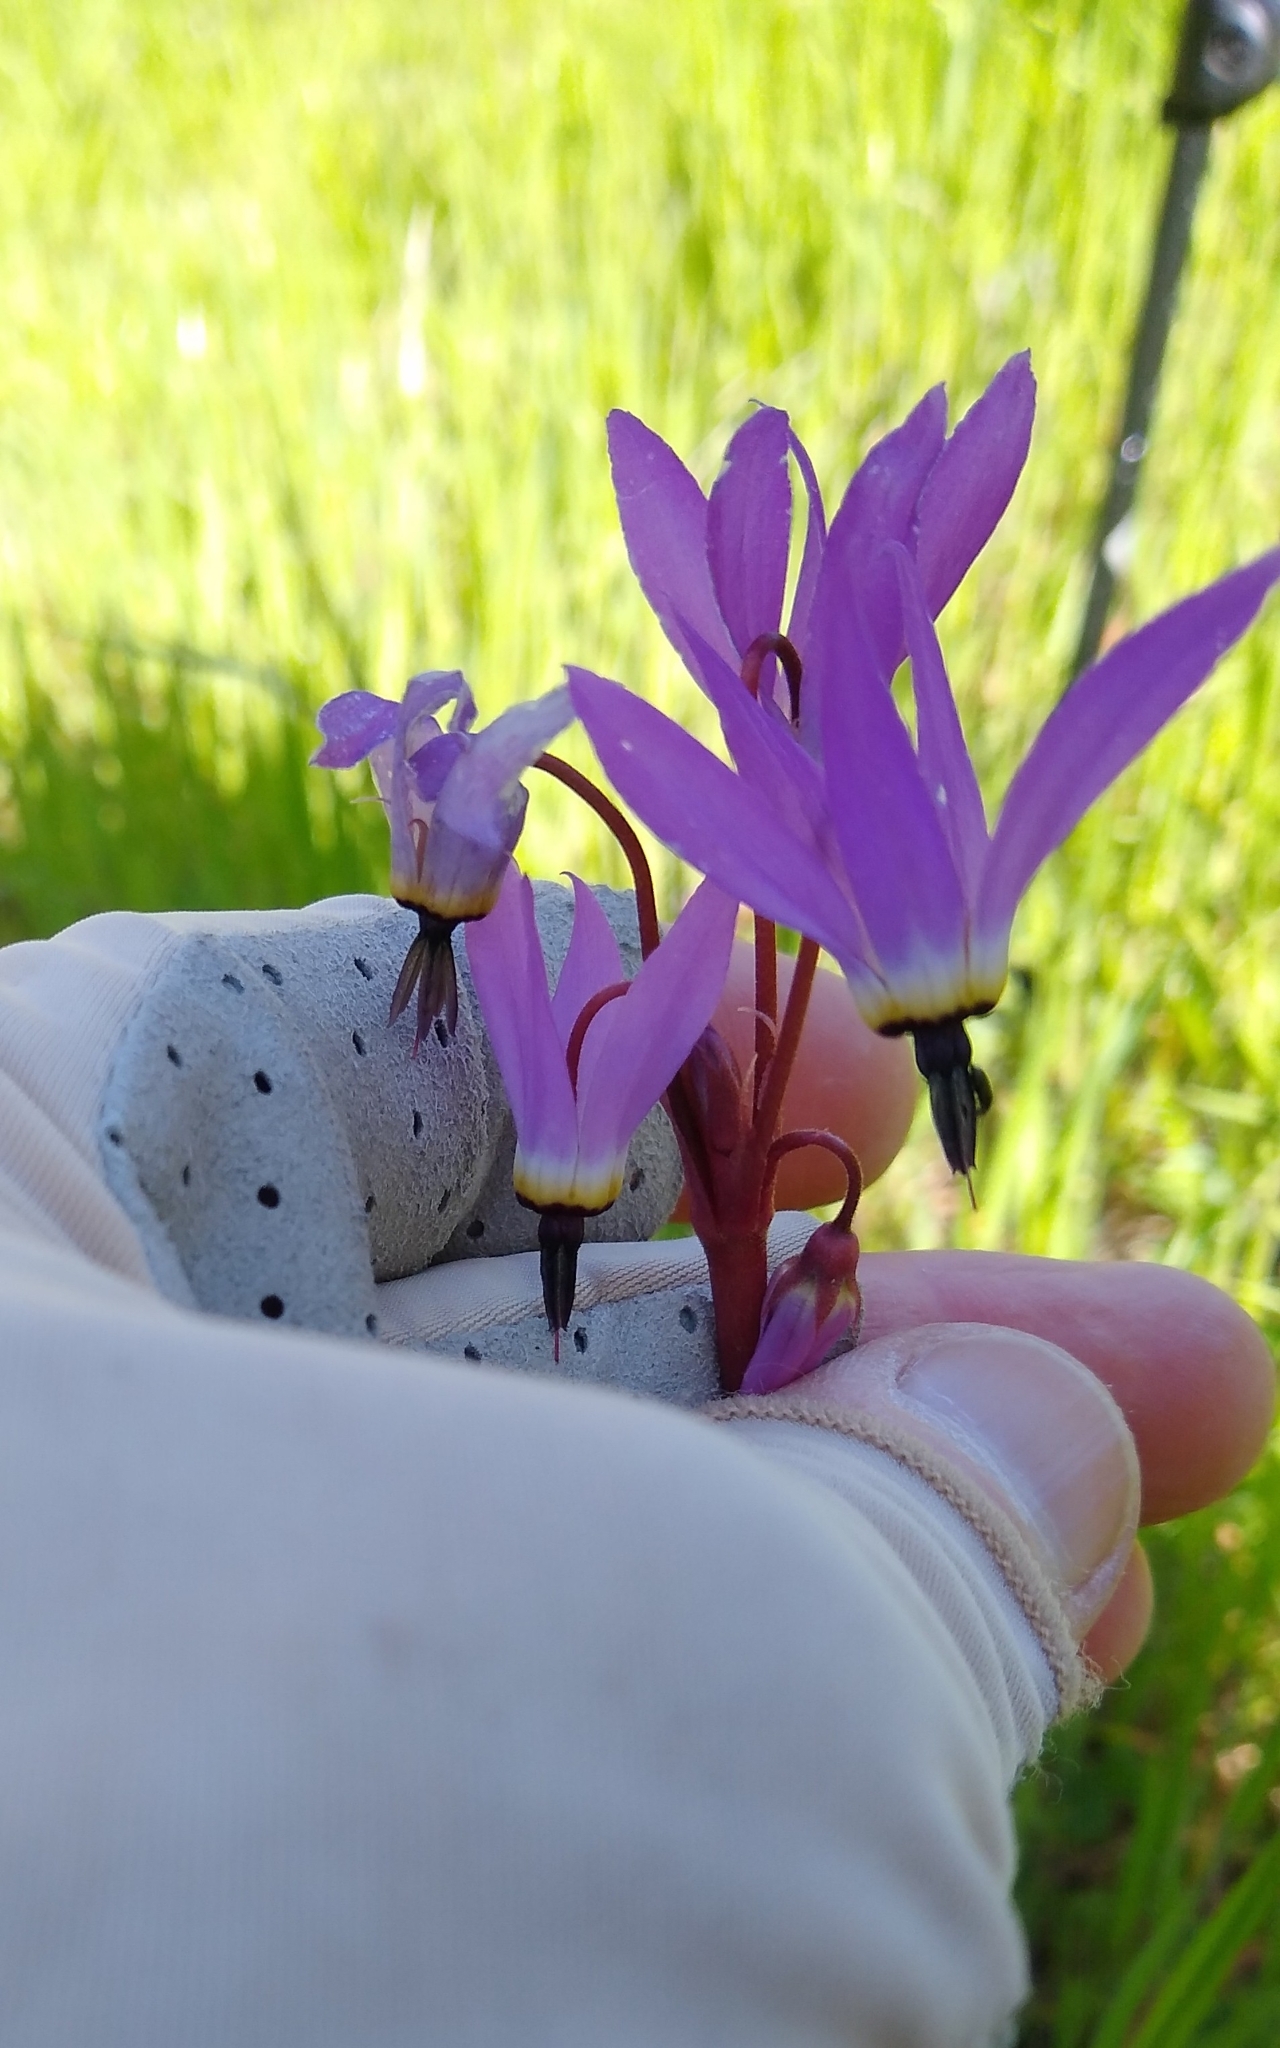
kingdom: Plantae
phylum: Tracheophyta
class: Magnoliopsida
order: Ericales
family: Primulaceae
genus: Dodecatheon
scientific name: Dodecatheon hendersonii
